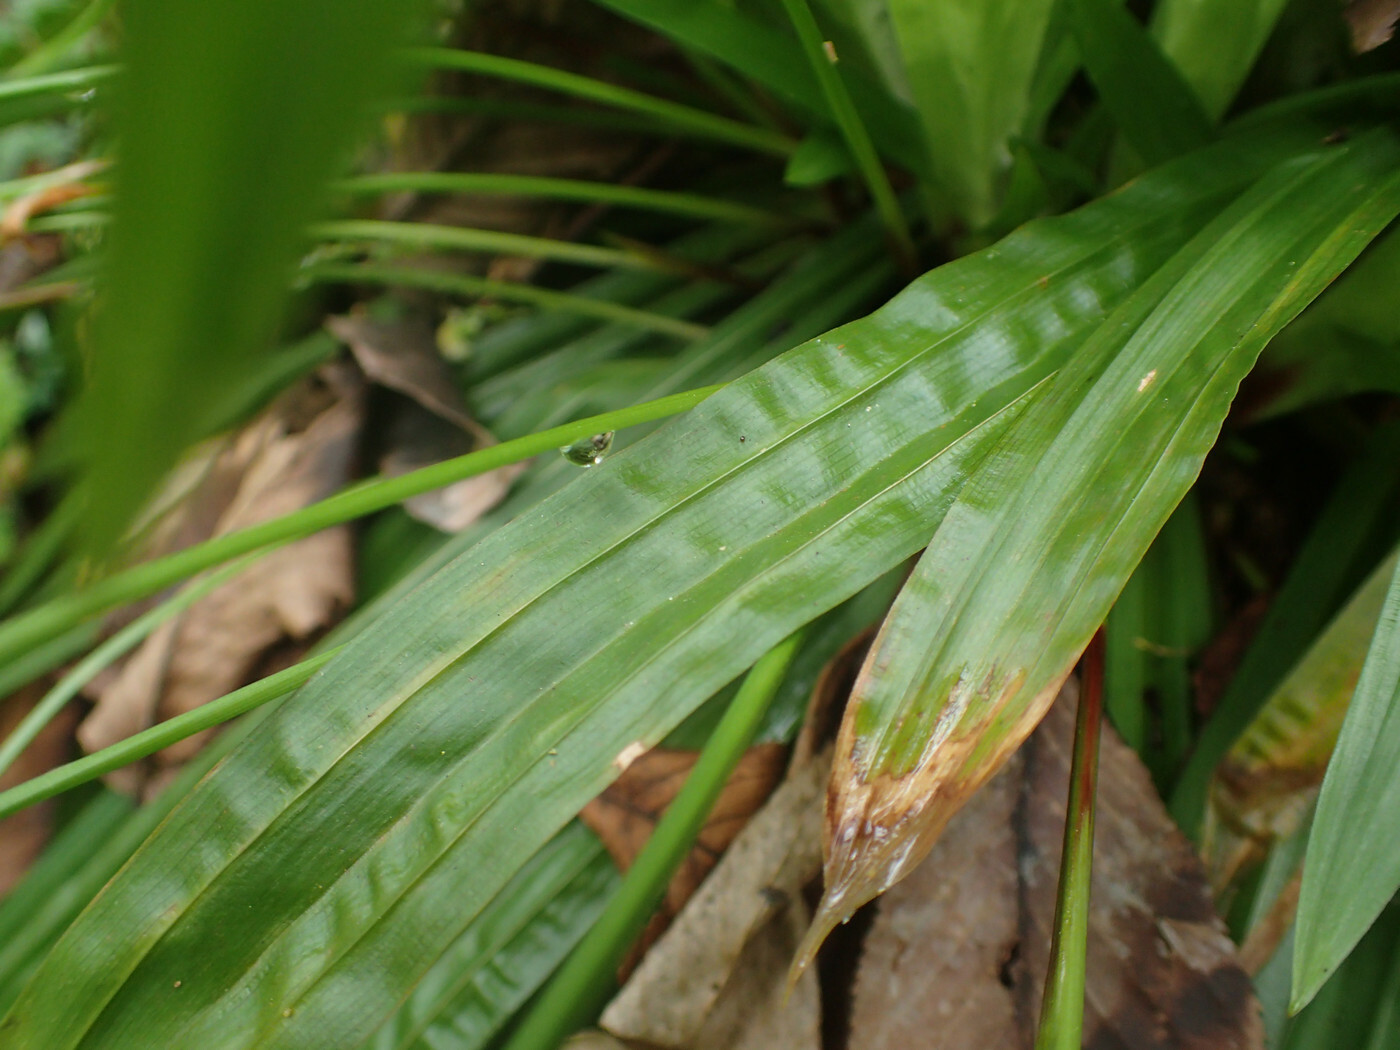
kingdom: Plantae
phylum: Tracheophyta
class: Liliopsida
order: Poales
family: Cyperaceae
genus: Carex
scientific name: Carex plantaginea
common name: Plantain-leaved sedge
